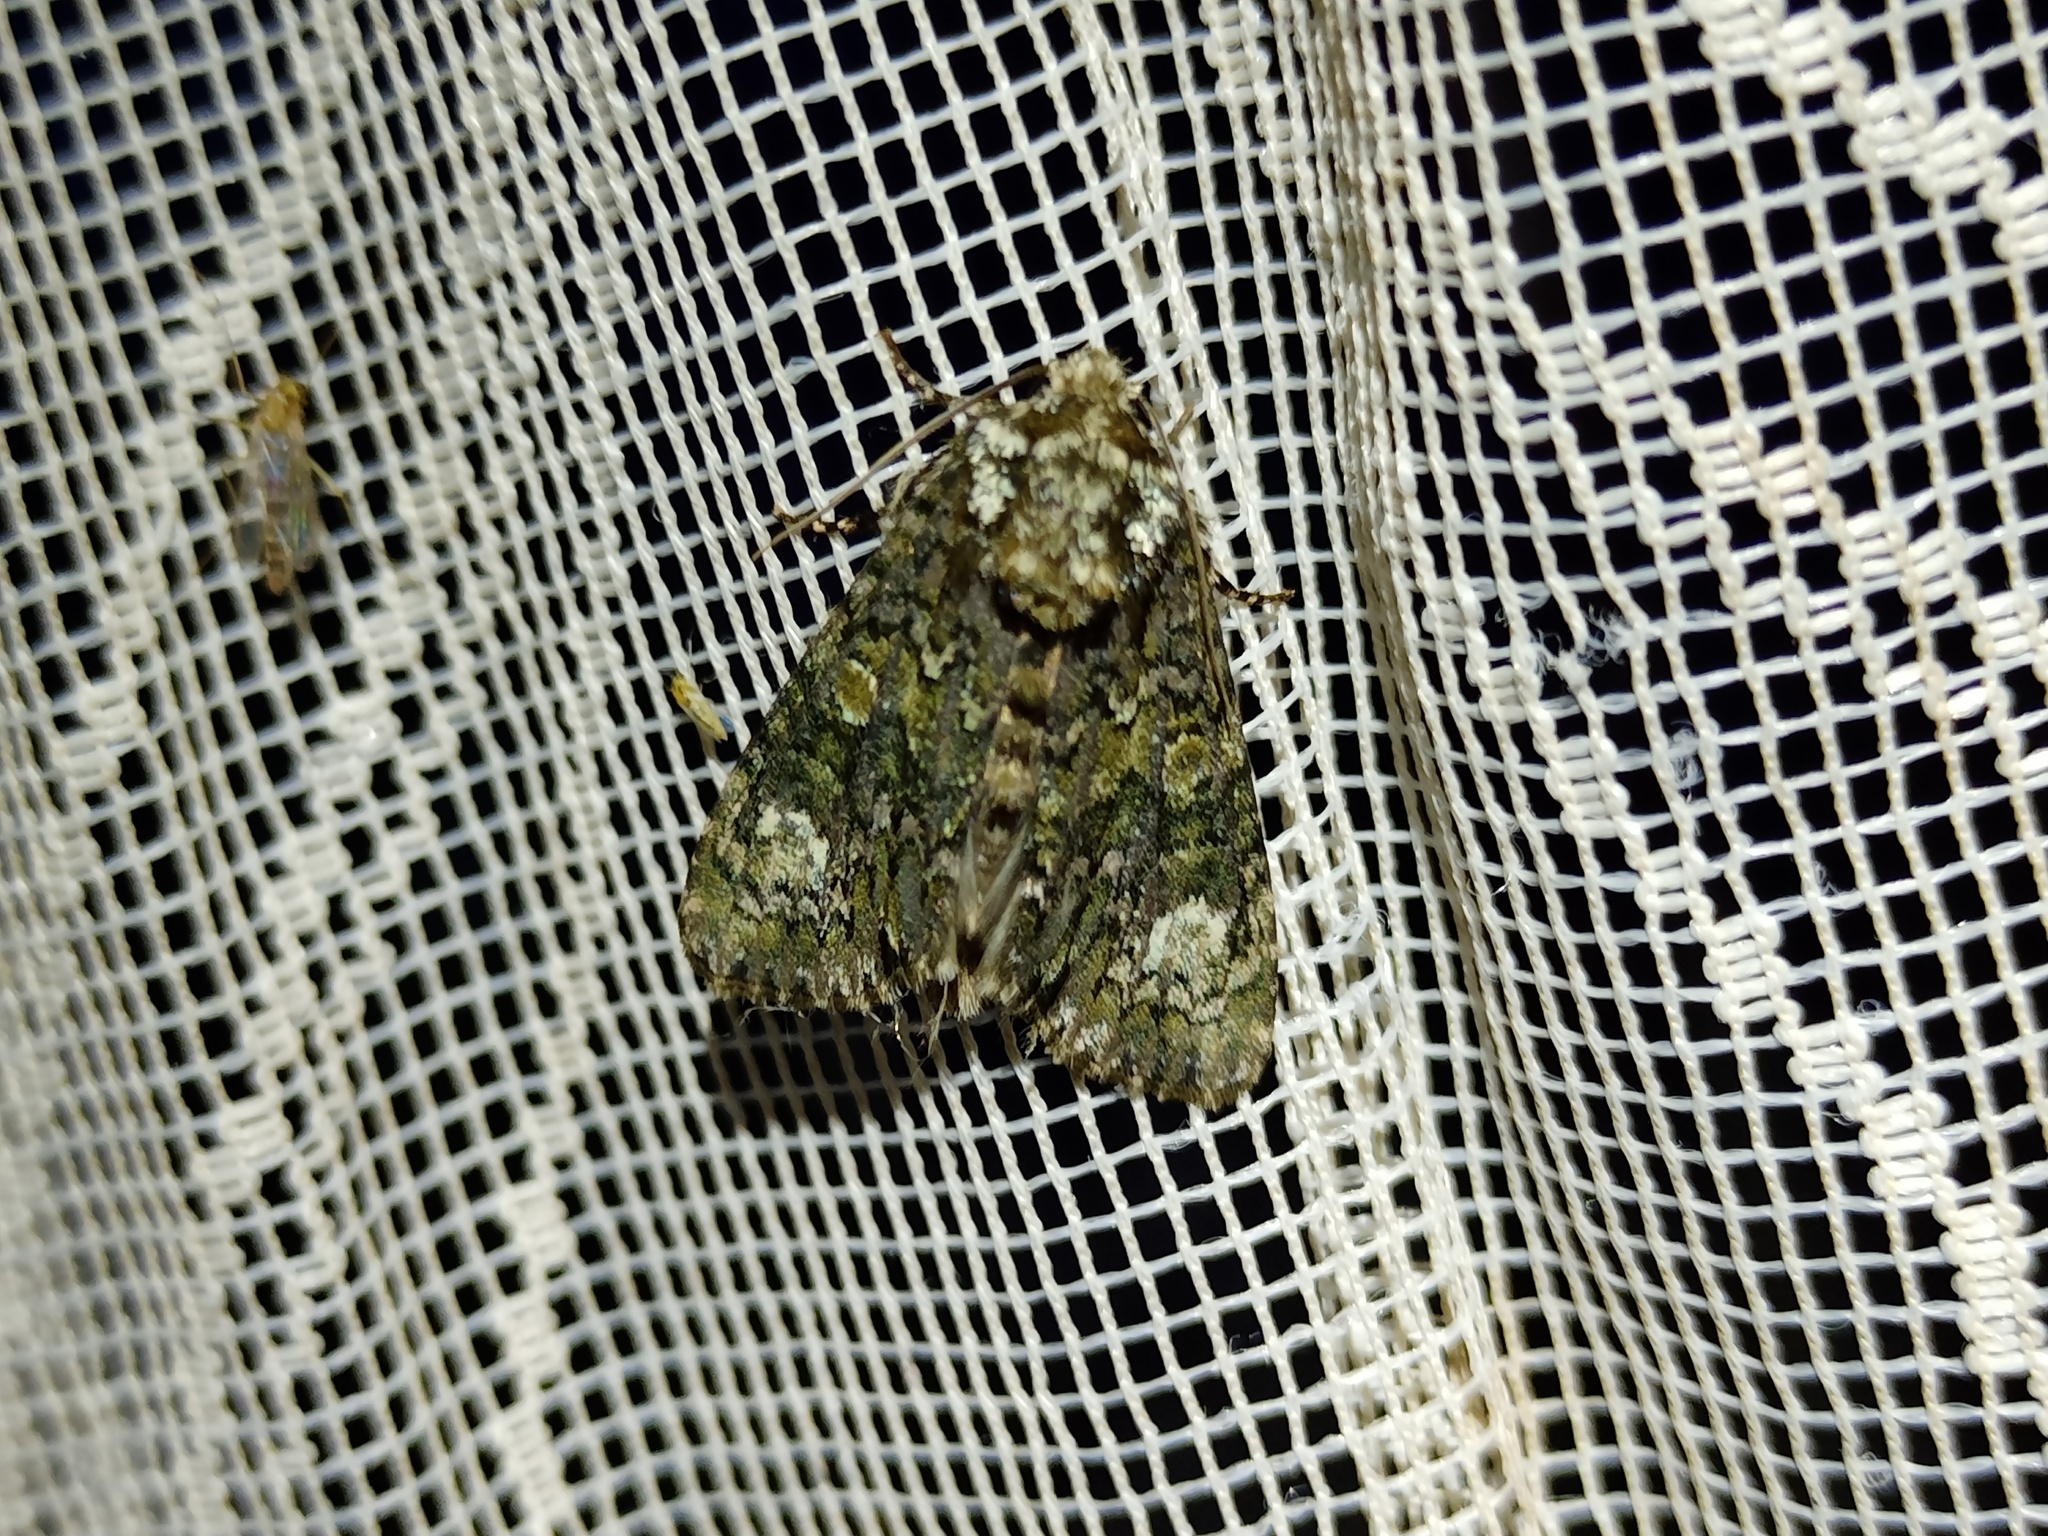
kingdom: Animalia
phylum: Arthropoda
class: Insecta
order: Lepidoptera
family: Noctuidae
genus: Craniophora
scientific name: Craniophora ligustri
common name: Coronet
